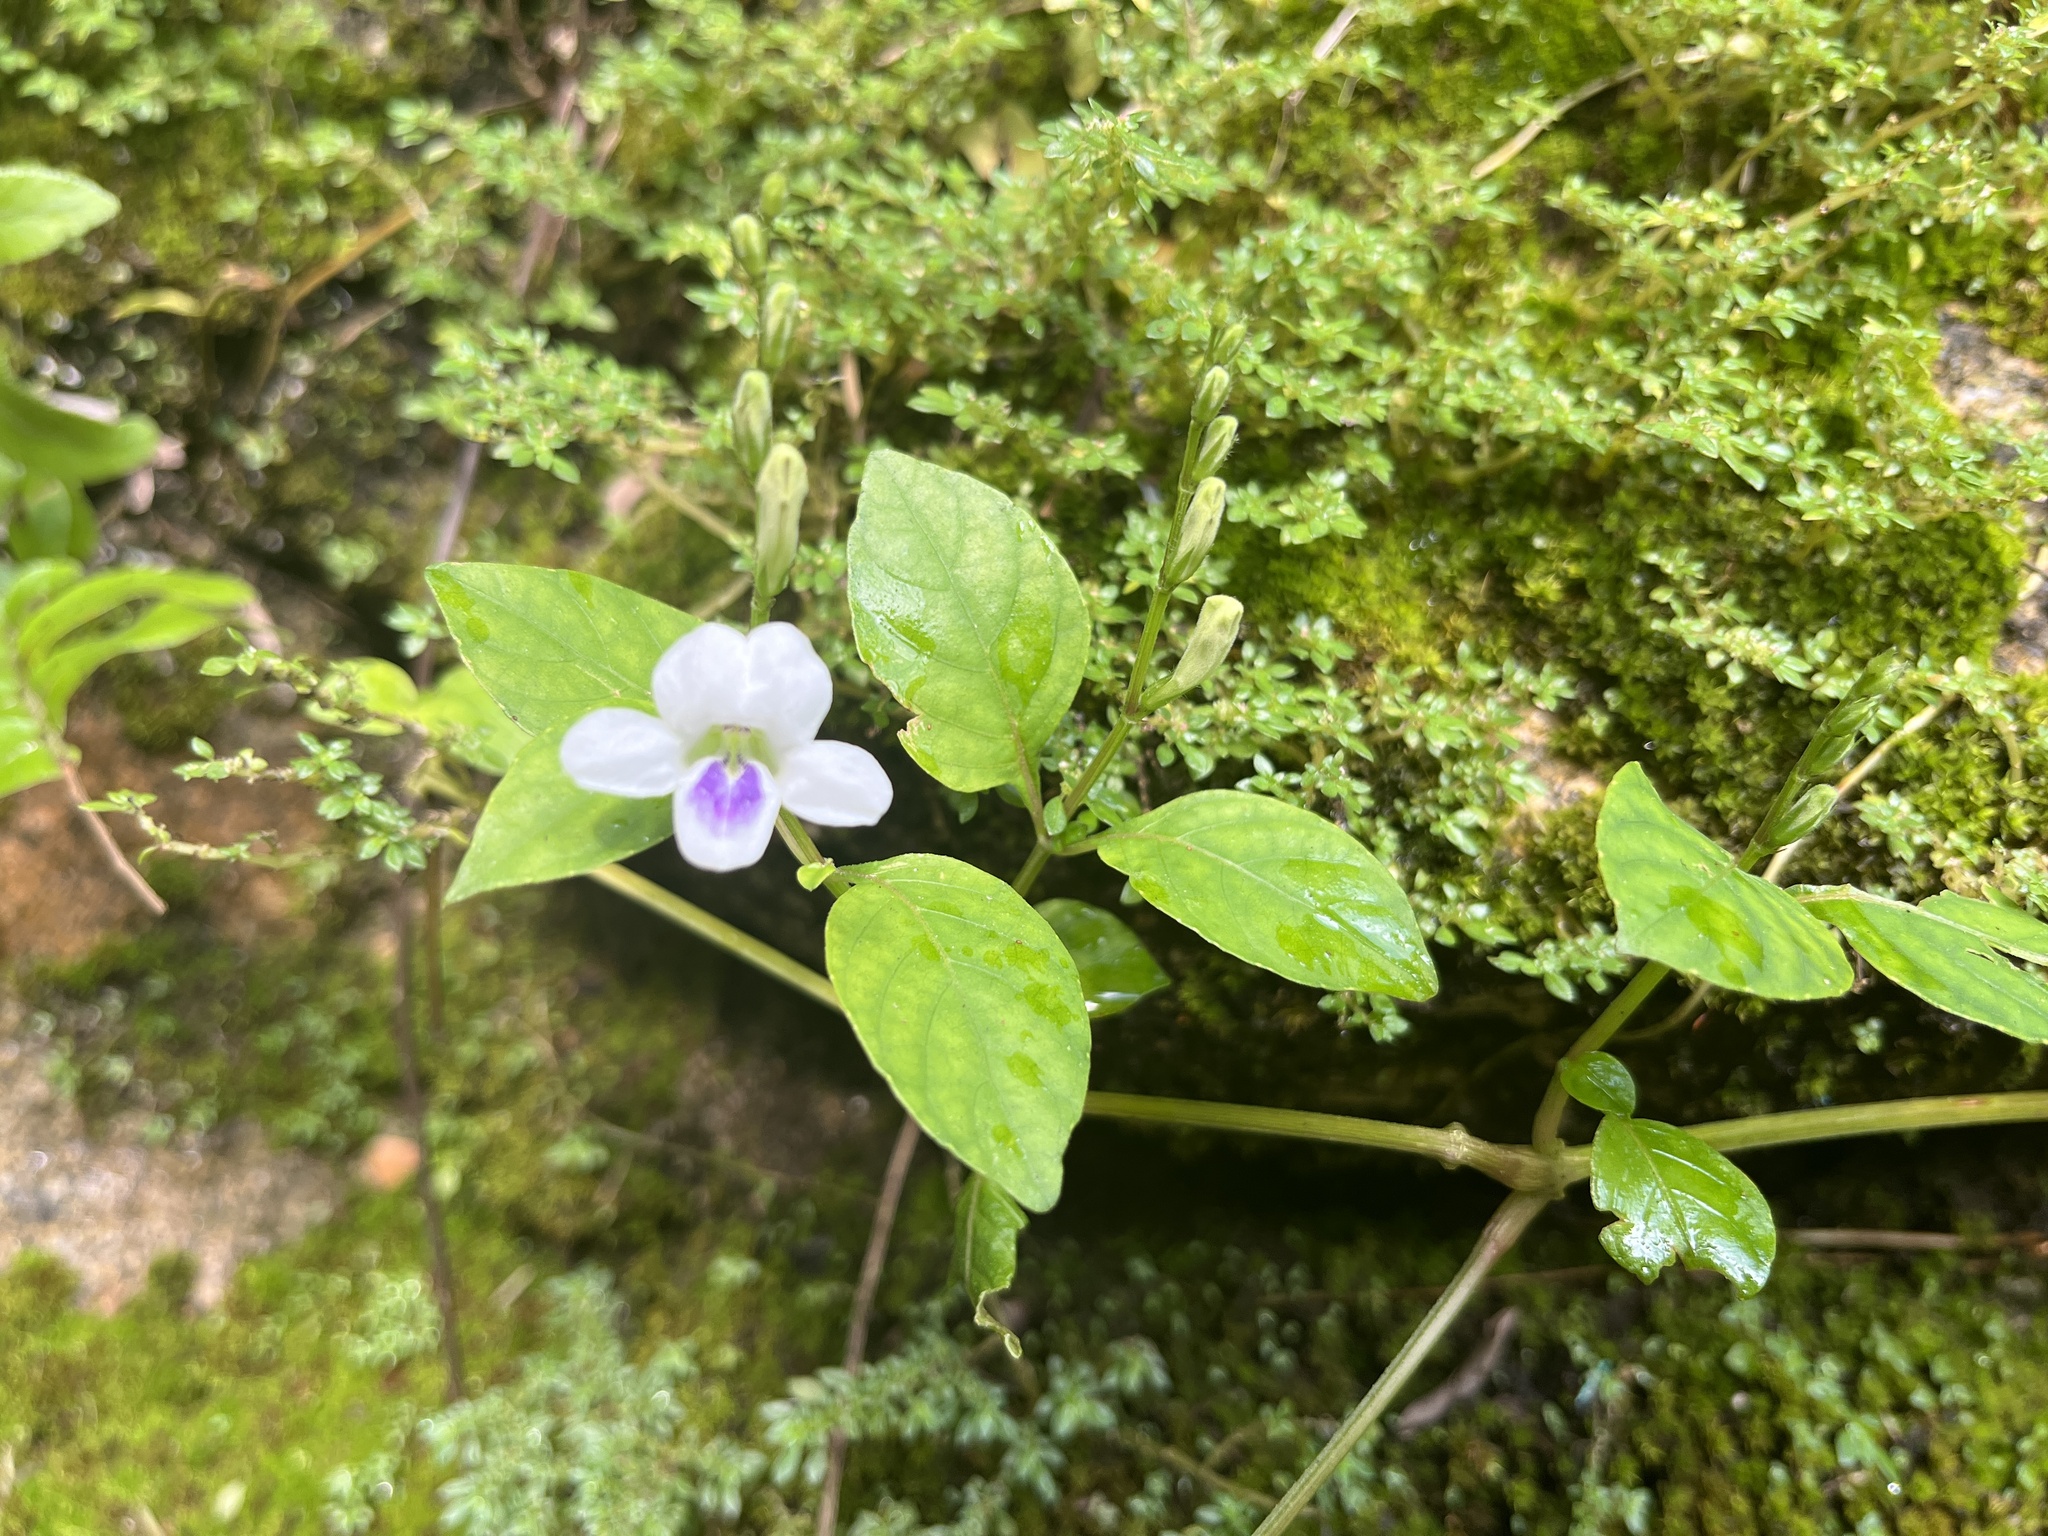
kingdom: Plantae
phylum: Tracheophyta
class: Magnoliopsida
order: Lamiales
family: Acanthaceae
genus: Asystasia
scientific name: Asystasia intrusa
